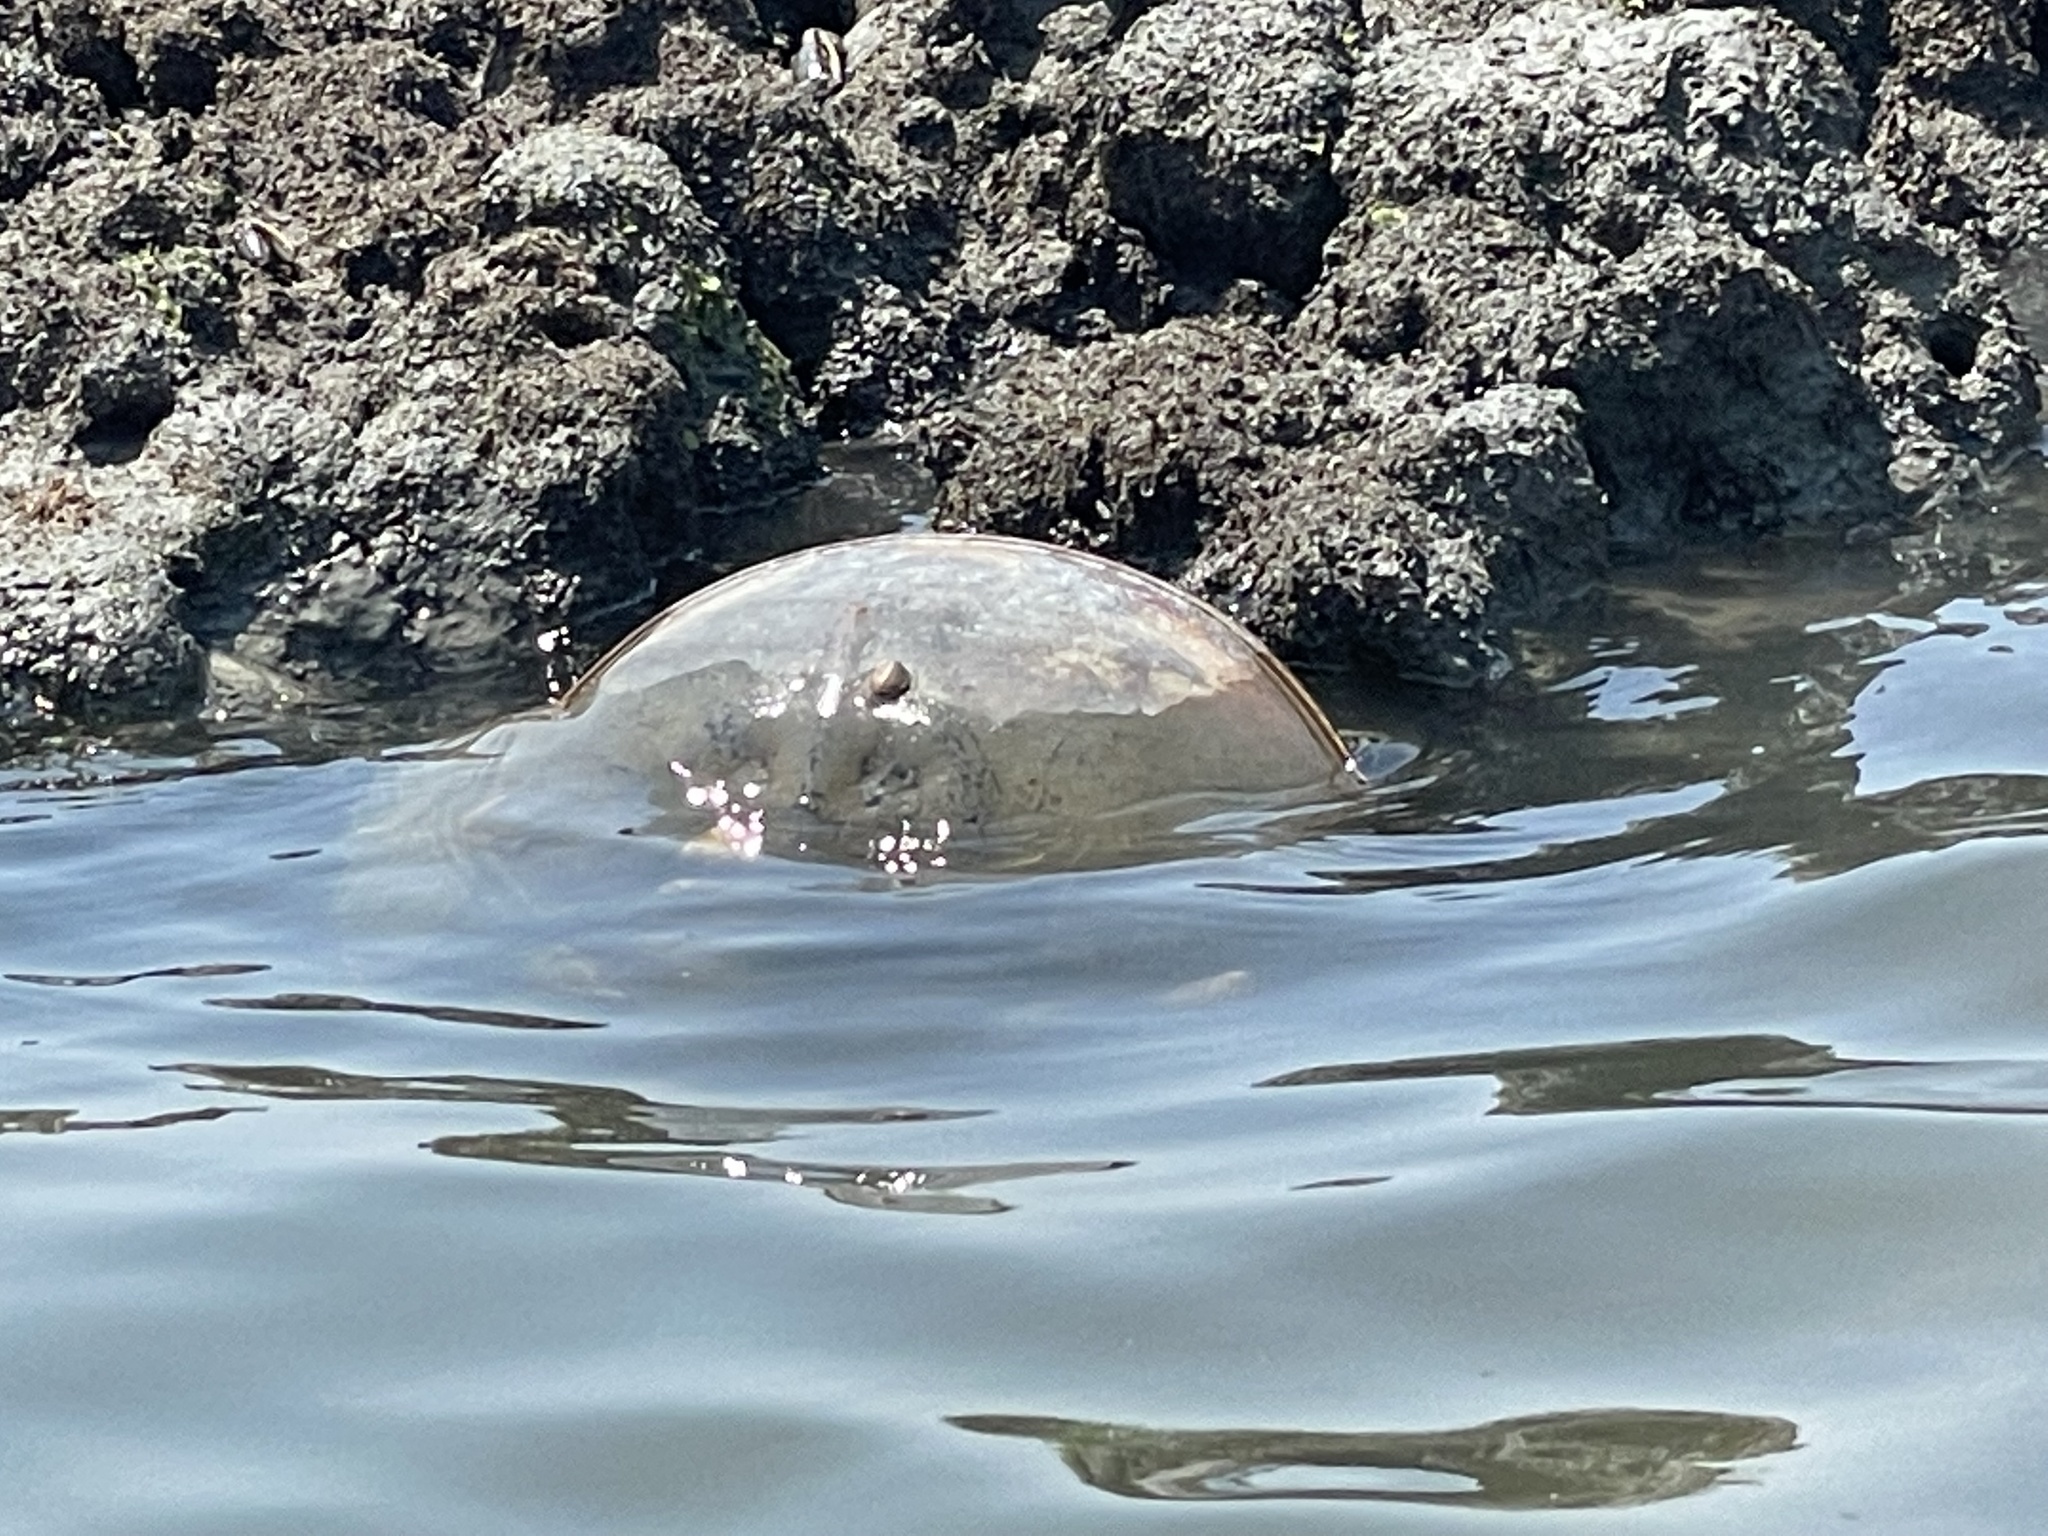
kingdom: Animalia
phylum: Arthropoda
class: Merostomata
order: Xiphosurida
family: Limulidae
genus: Limulus
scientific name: Limulus polyphemus
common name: Horseshoe crab
